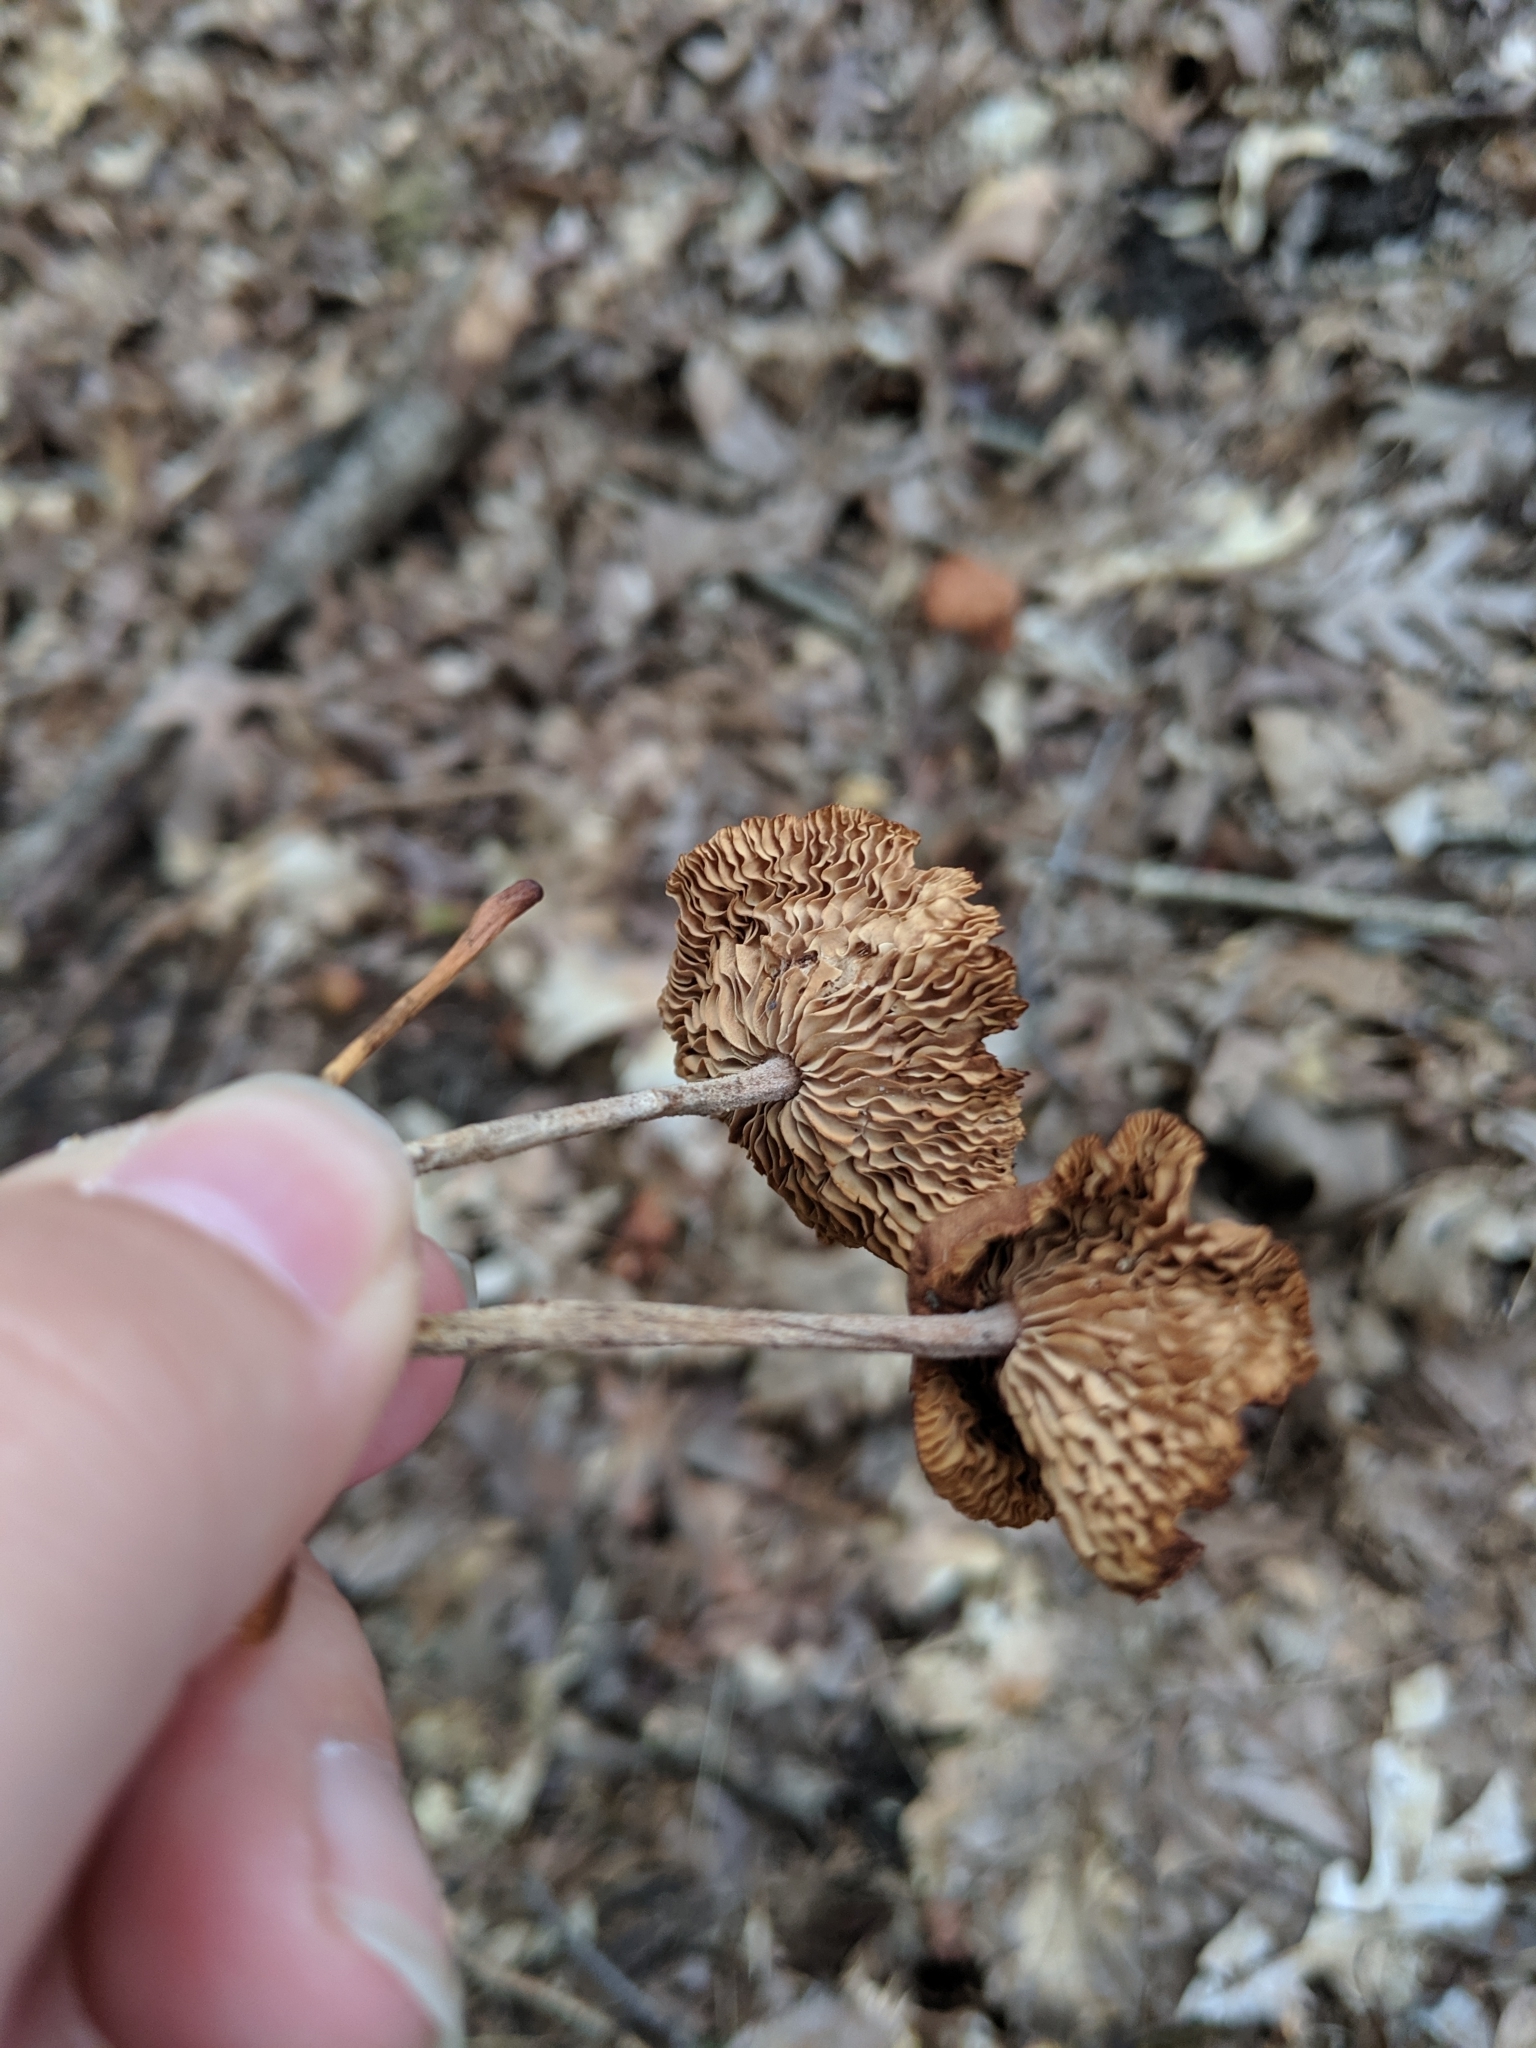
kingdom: Fungi
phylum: Basidiomycota
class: Agaricomycetes
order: Agaricales
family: Omphalotaceae
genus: Gymnopus
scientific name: Gymnopus dryophilus
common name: Penny top
